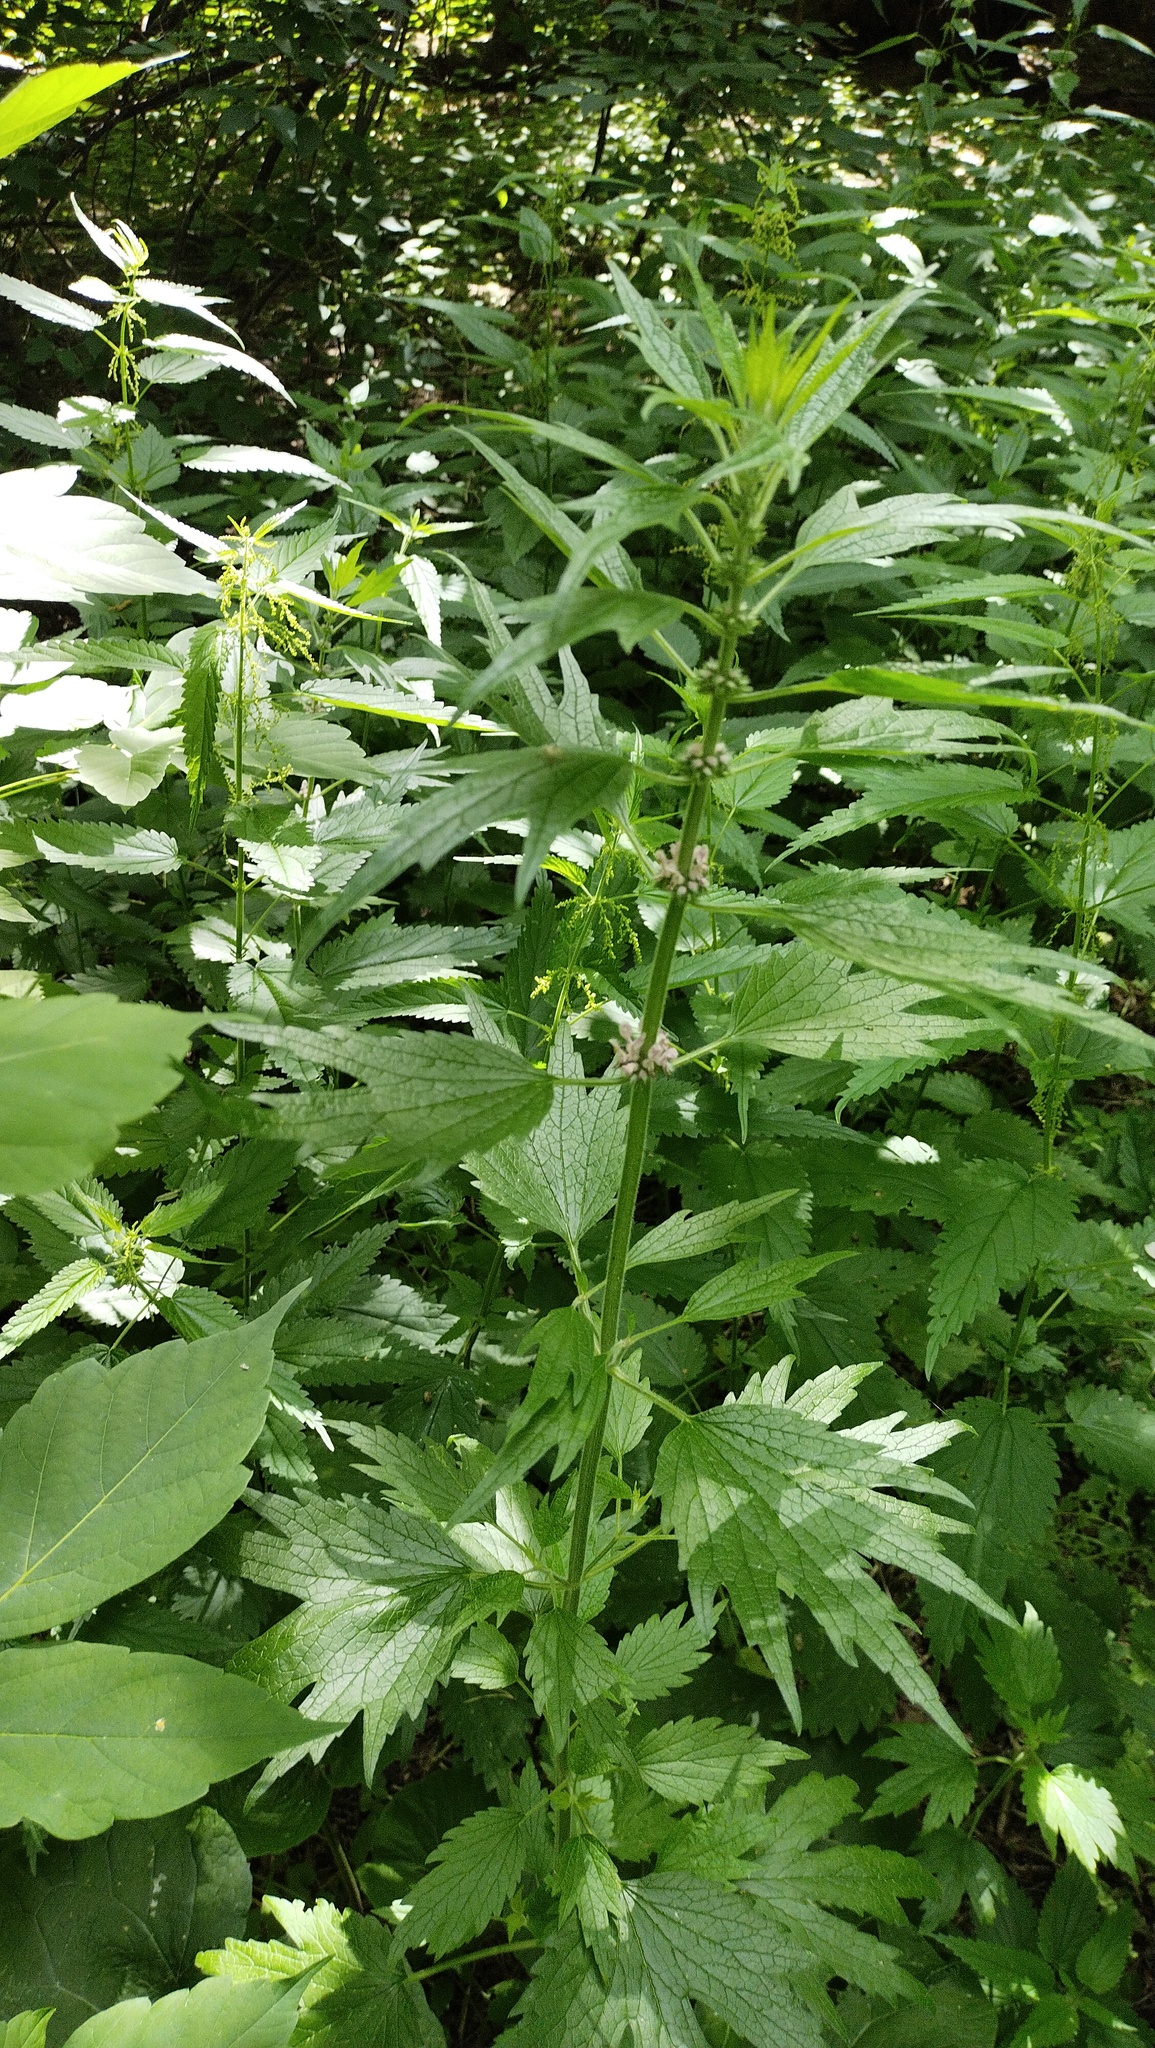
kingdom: Plantae
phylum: Tracheophyta
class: Magnoliopsida
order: Lamiales
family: Lamiaceae
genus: Leonurus
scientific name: Leonurus quinquelobatus
